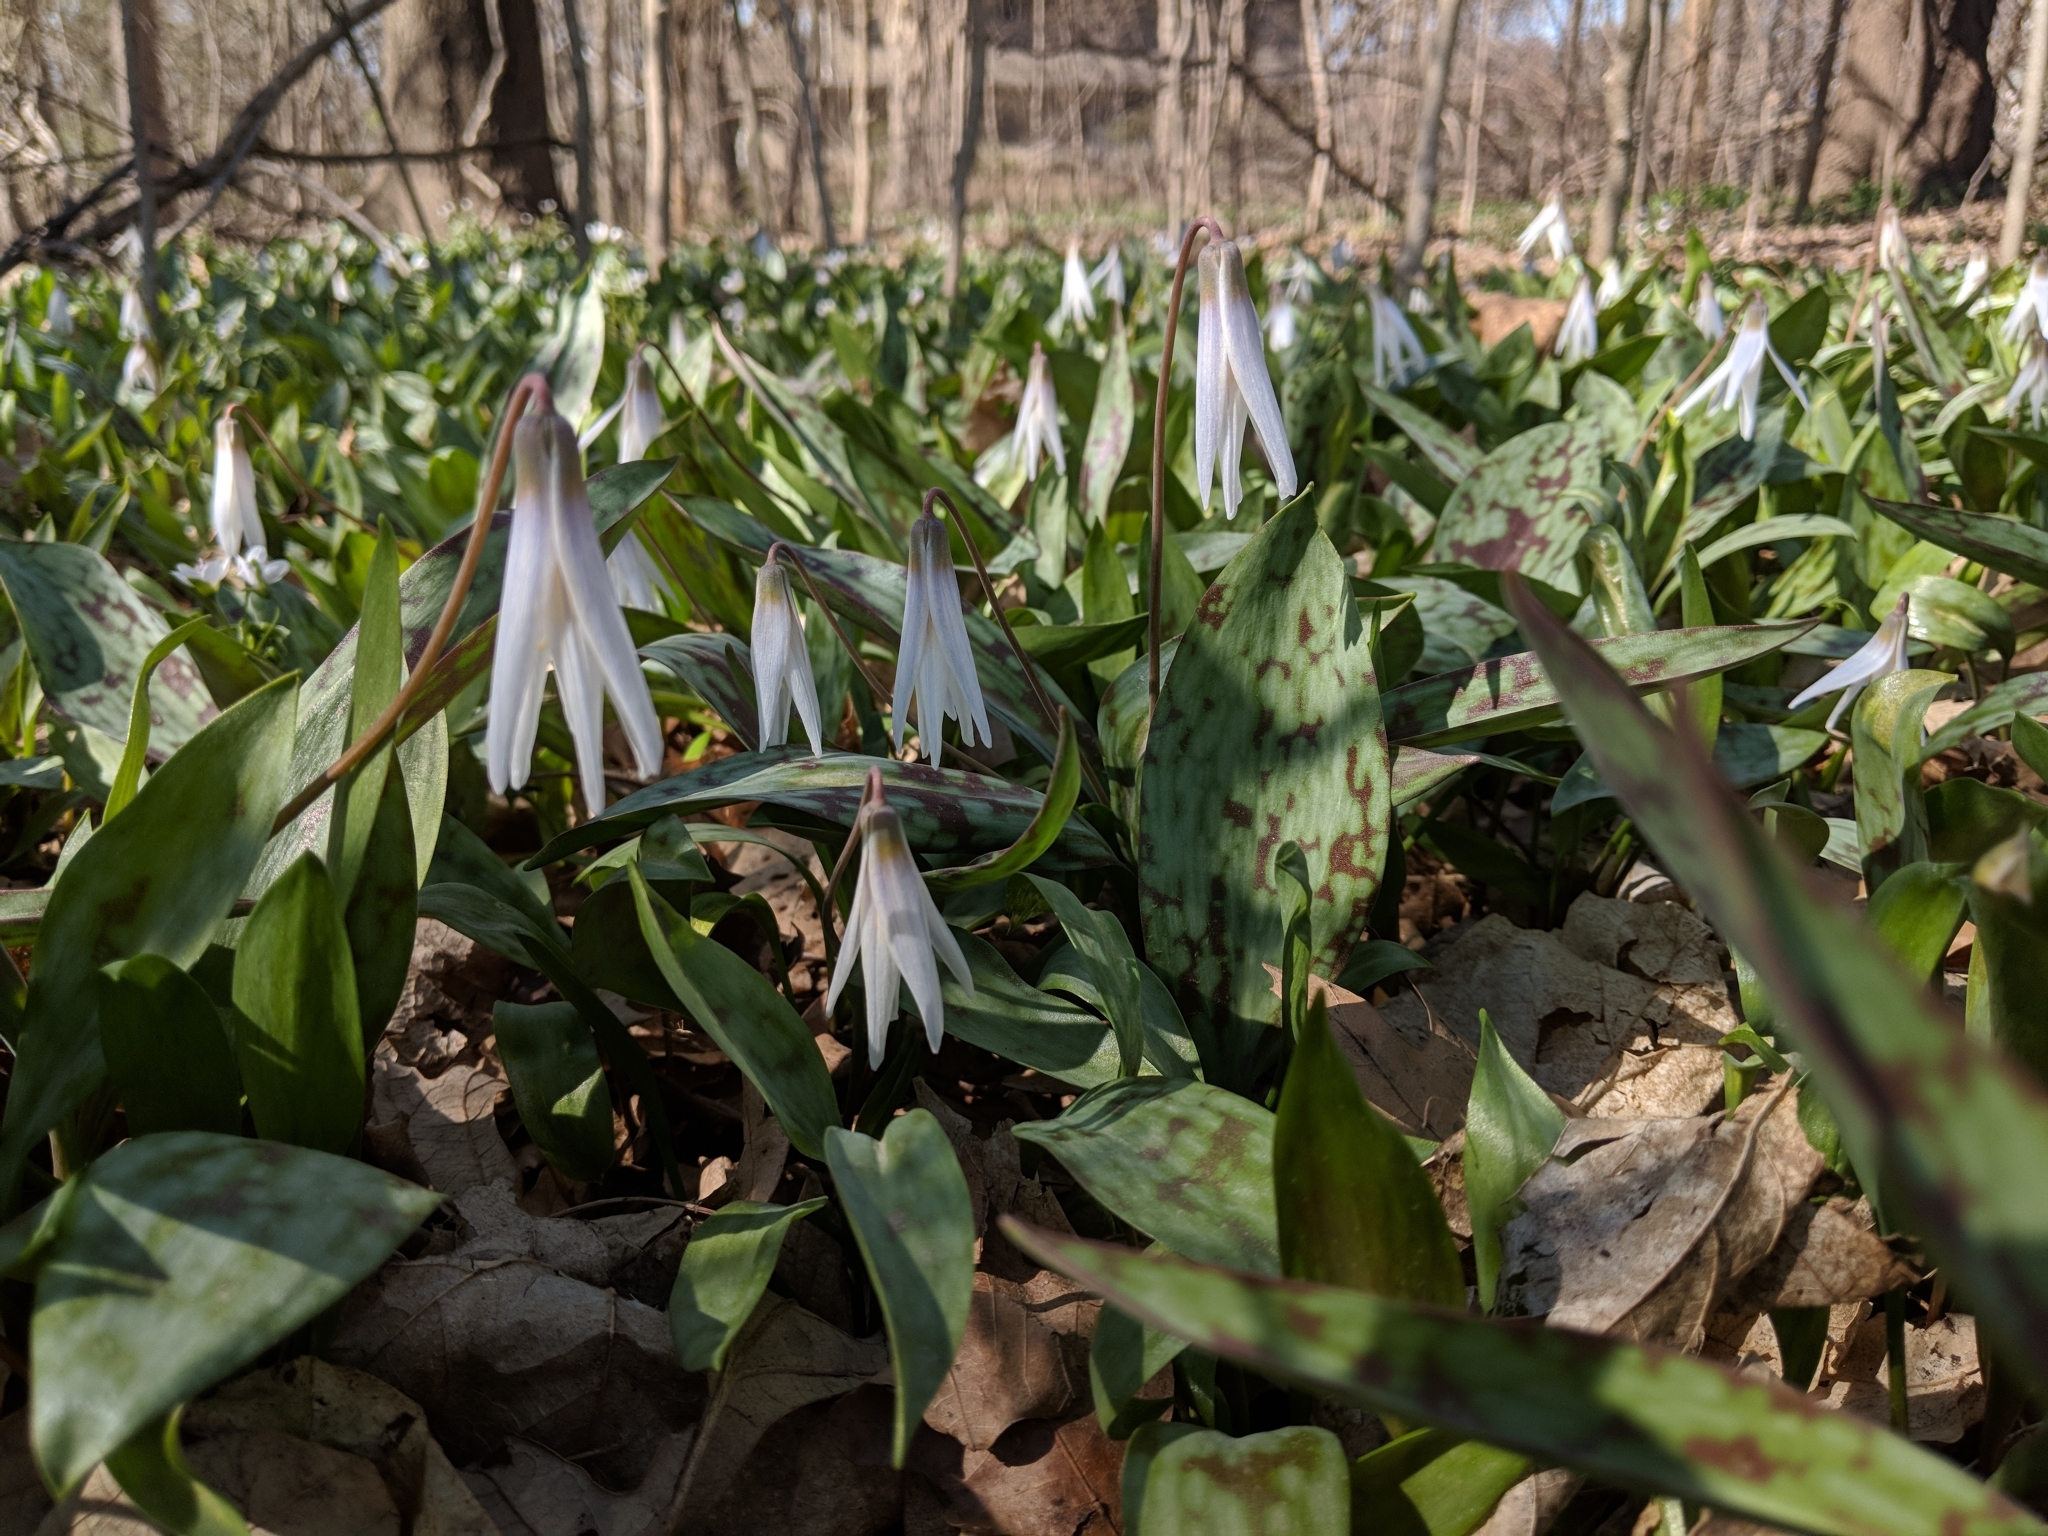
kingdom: Plantae
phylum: Tracheophyta
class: Liliopsida
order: Liliales
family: Liliaceae
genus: Erythronium
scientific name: Erythronium albidum
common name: White trout-lily
